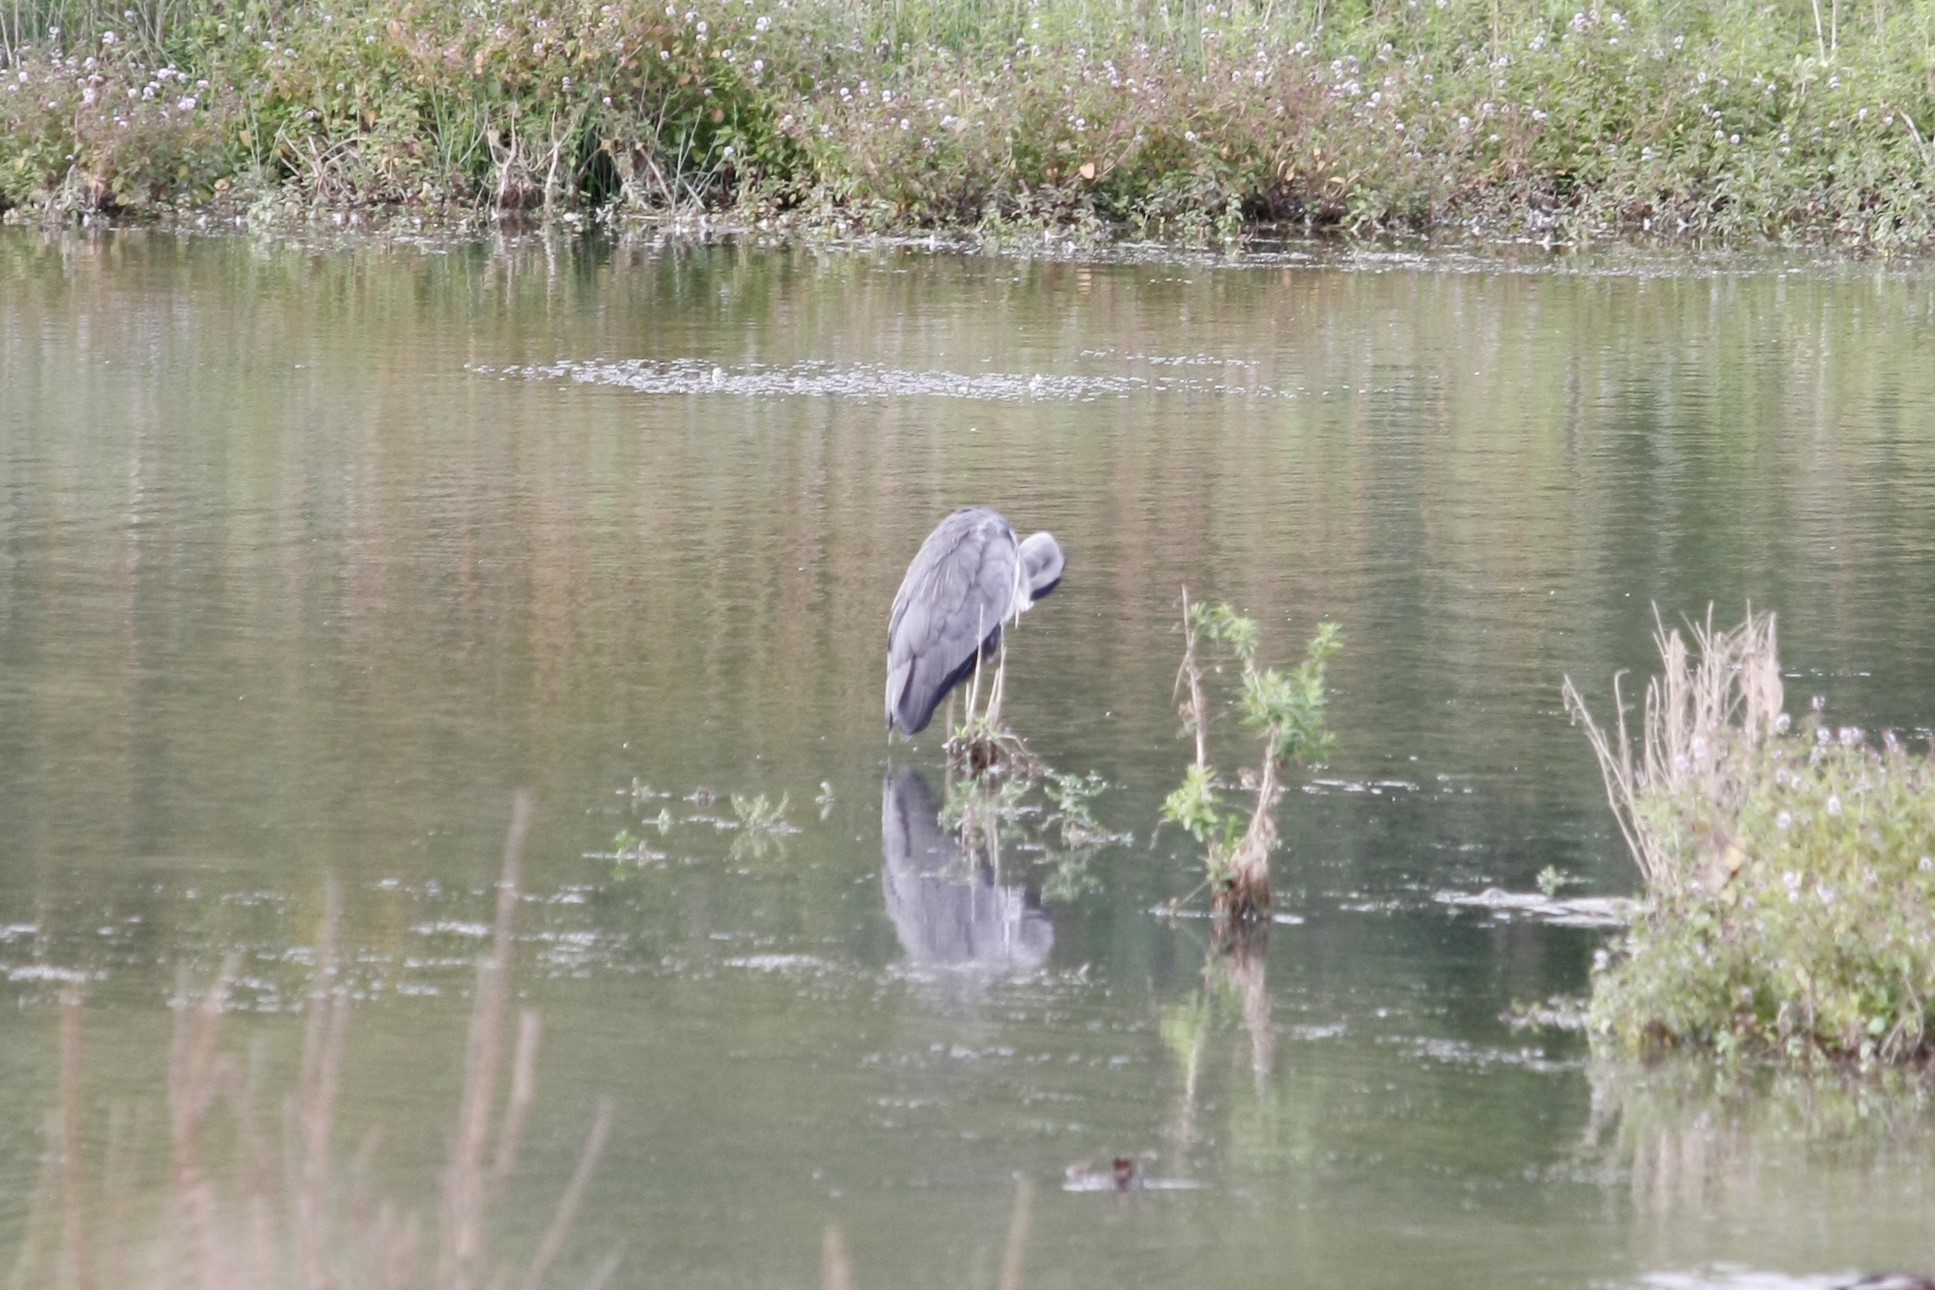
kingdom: Animalia
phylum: Chordata
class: Aves
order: Pelecaniformes
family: Ardeidae
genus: Ardea
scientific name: Ardea cinerea
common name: Grey heron
